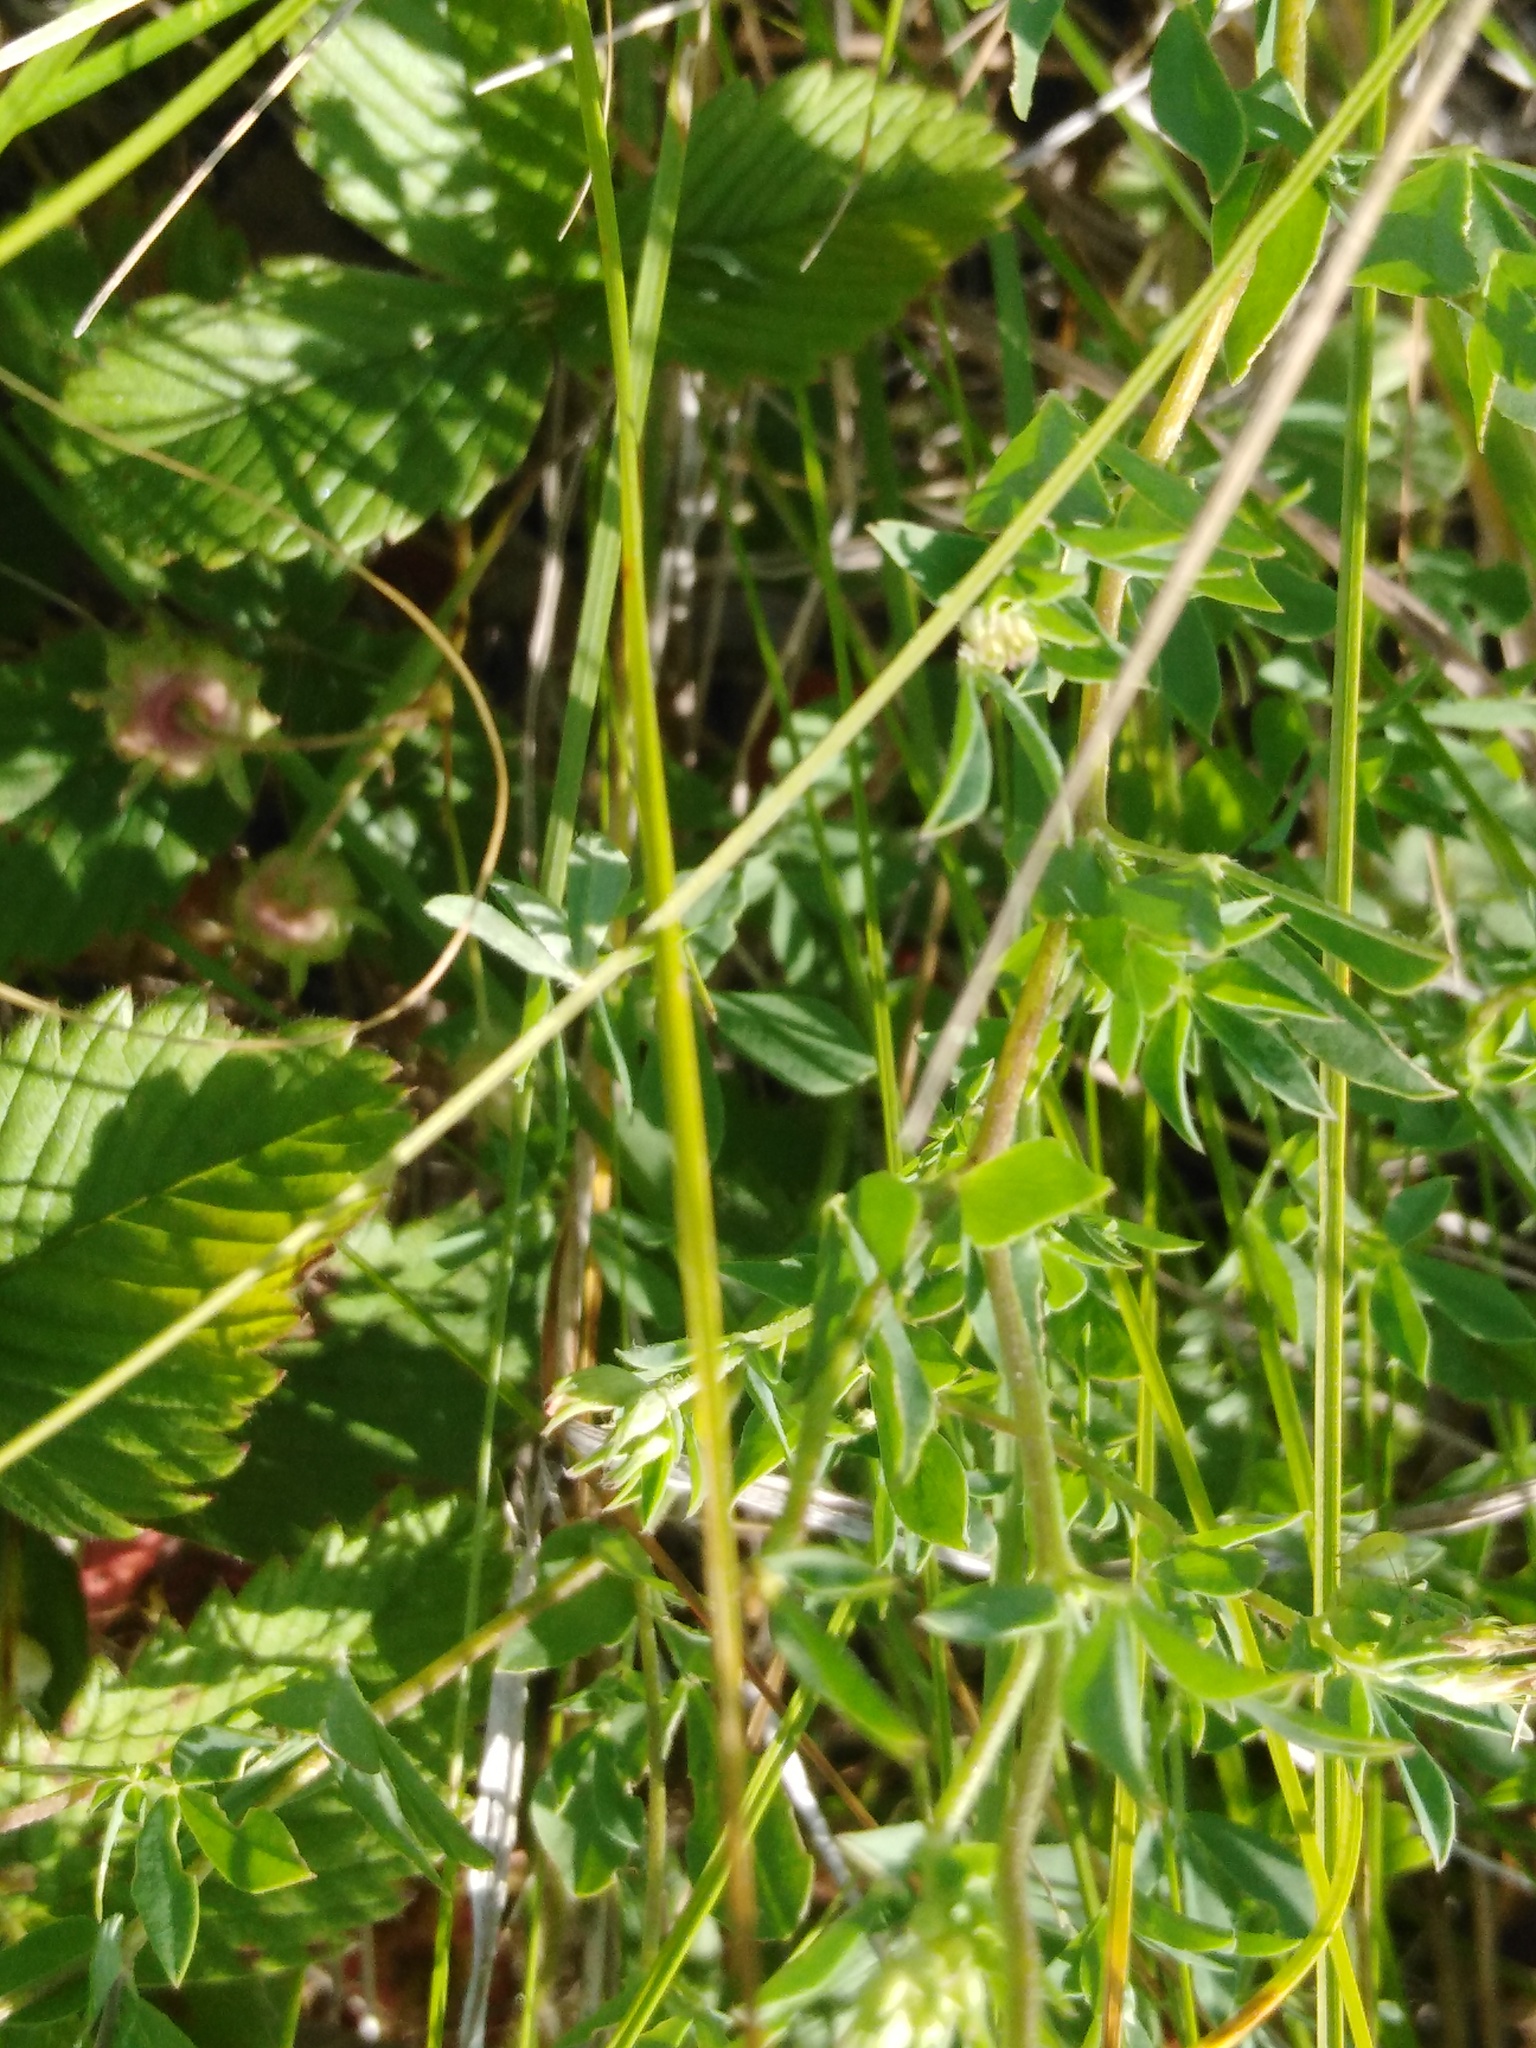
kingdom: Plantae
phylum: Tracheophyta
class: Magnoliopsida
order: Fabales
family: Fabaceae
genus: Lotus
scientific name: Lotus corniculatus
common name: Common bird's-foot-trefoil
